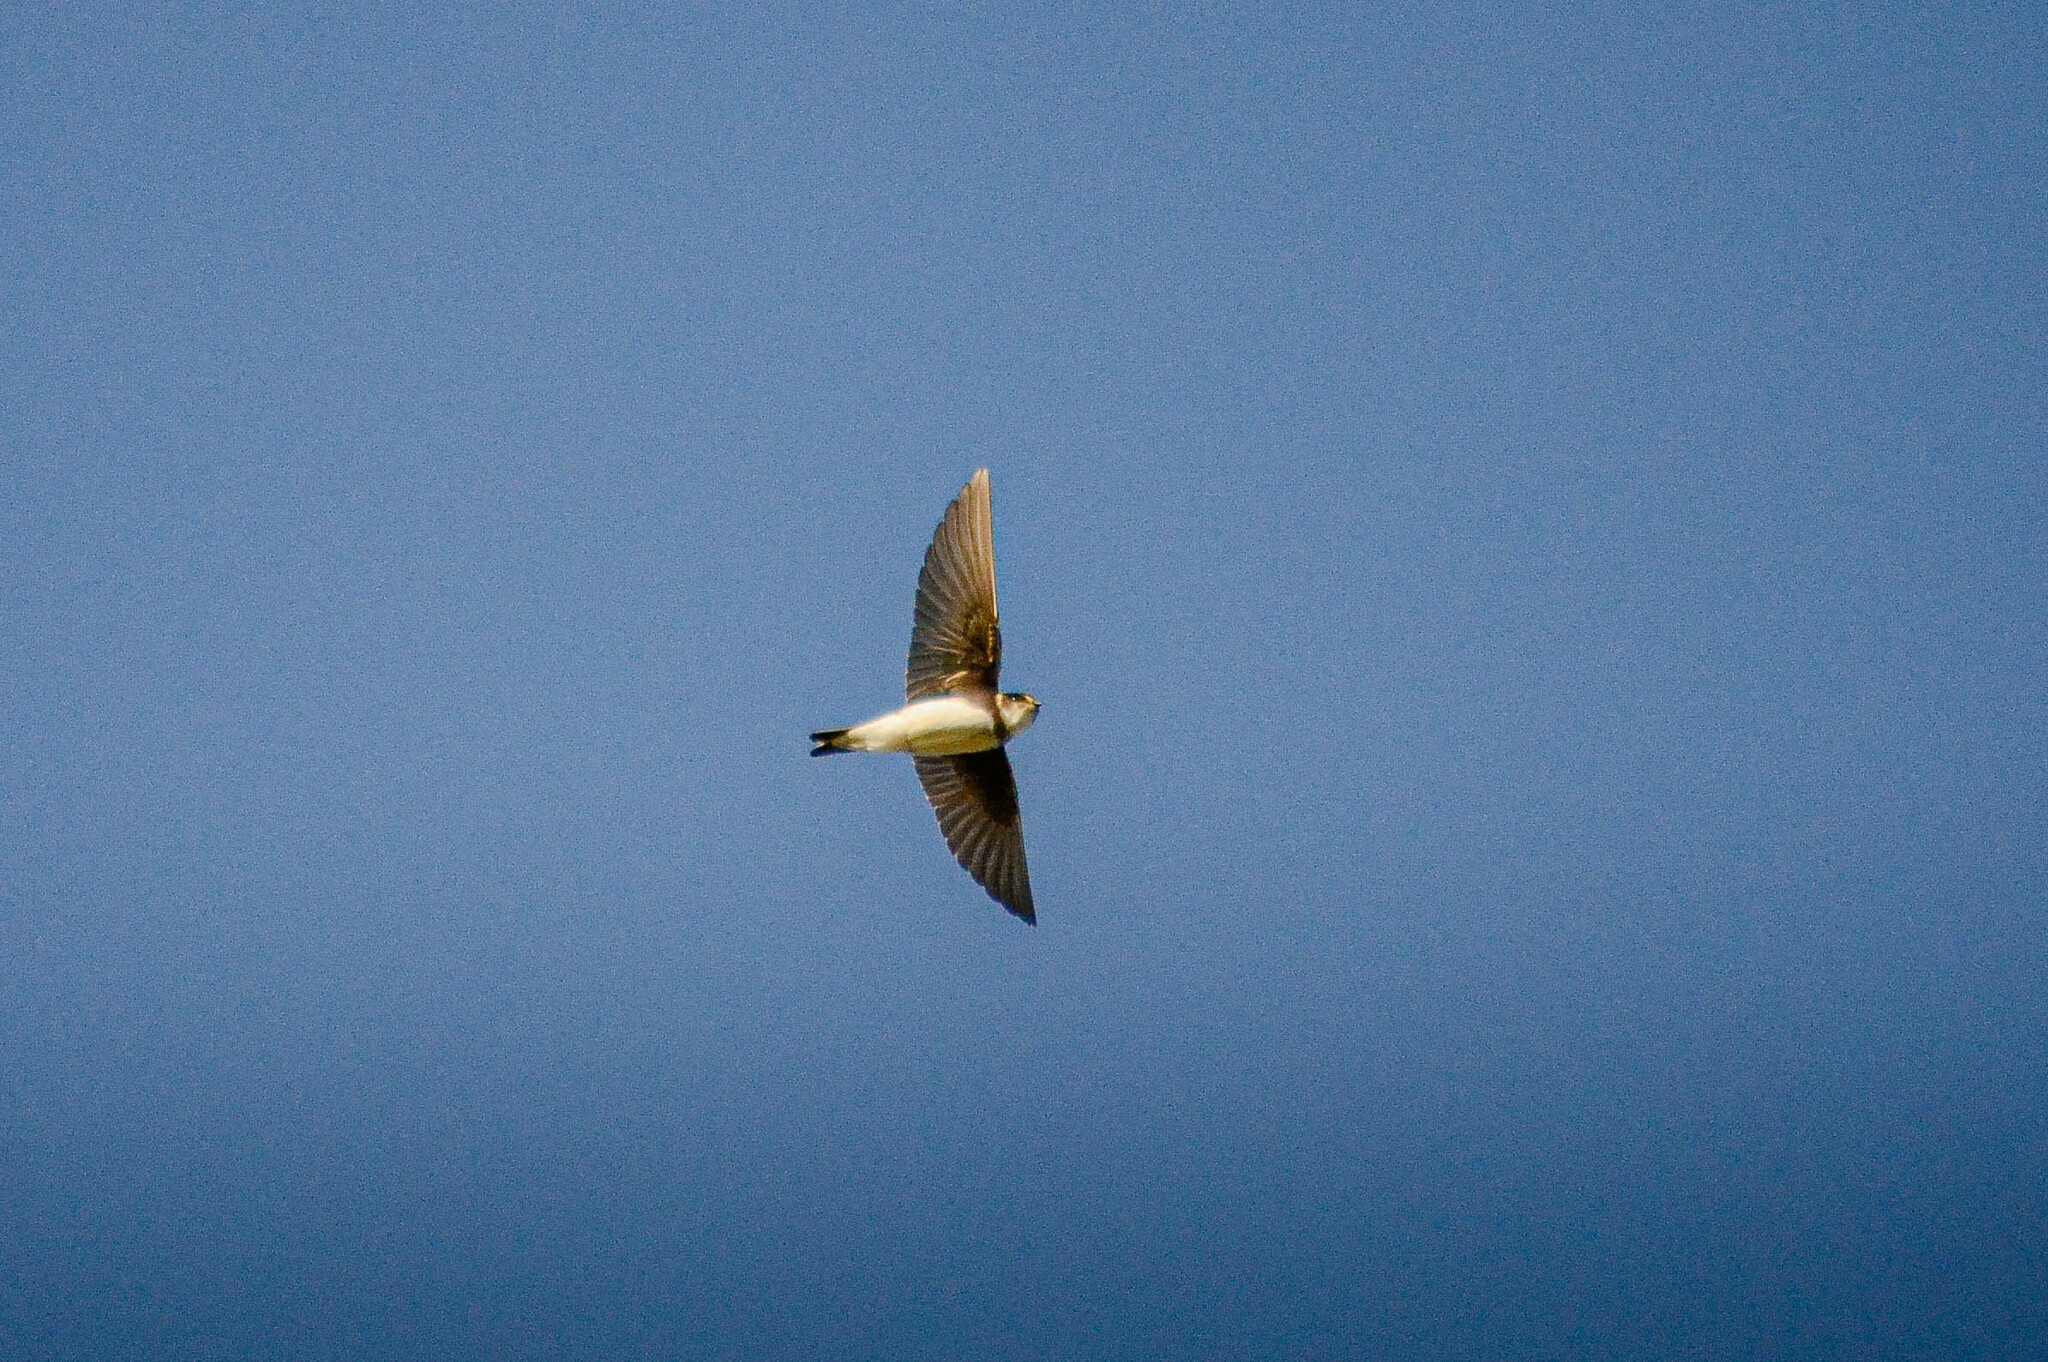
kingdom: Animalia
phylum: Chordata
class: Aves
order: Passeriformes
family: Hirundinidae
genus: Riparia
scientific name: Riparia riparia
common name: Sand martin
